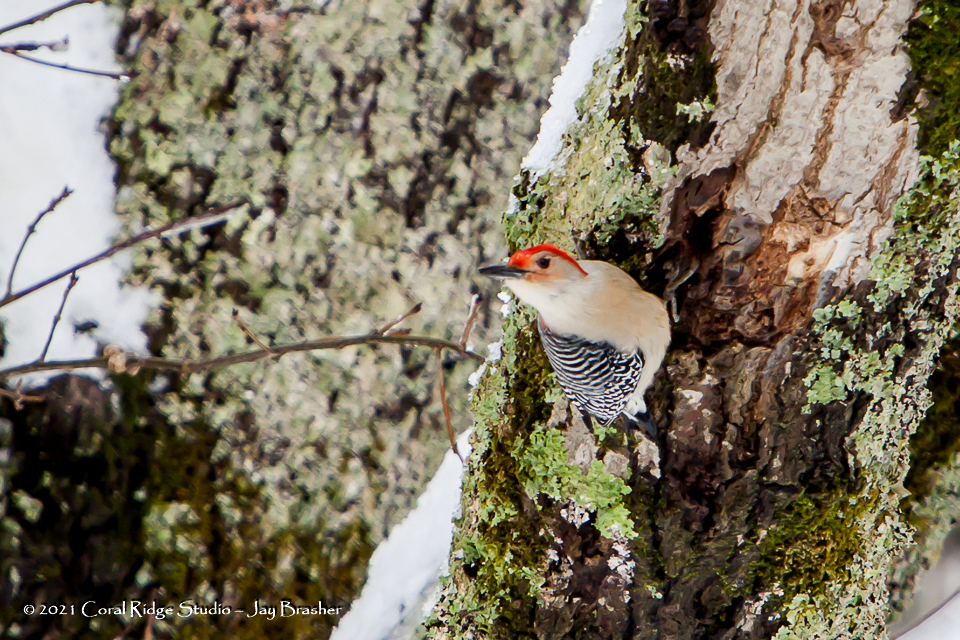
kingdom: Animalia
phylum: Chordata
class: Aves
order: Piciformes
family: Picidae
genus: Melanerpes
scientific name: Melanerpes carolinus
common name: Red-bellied woodpecker
